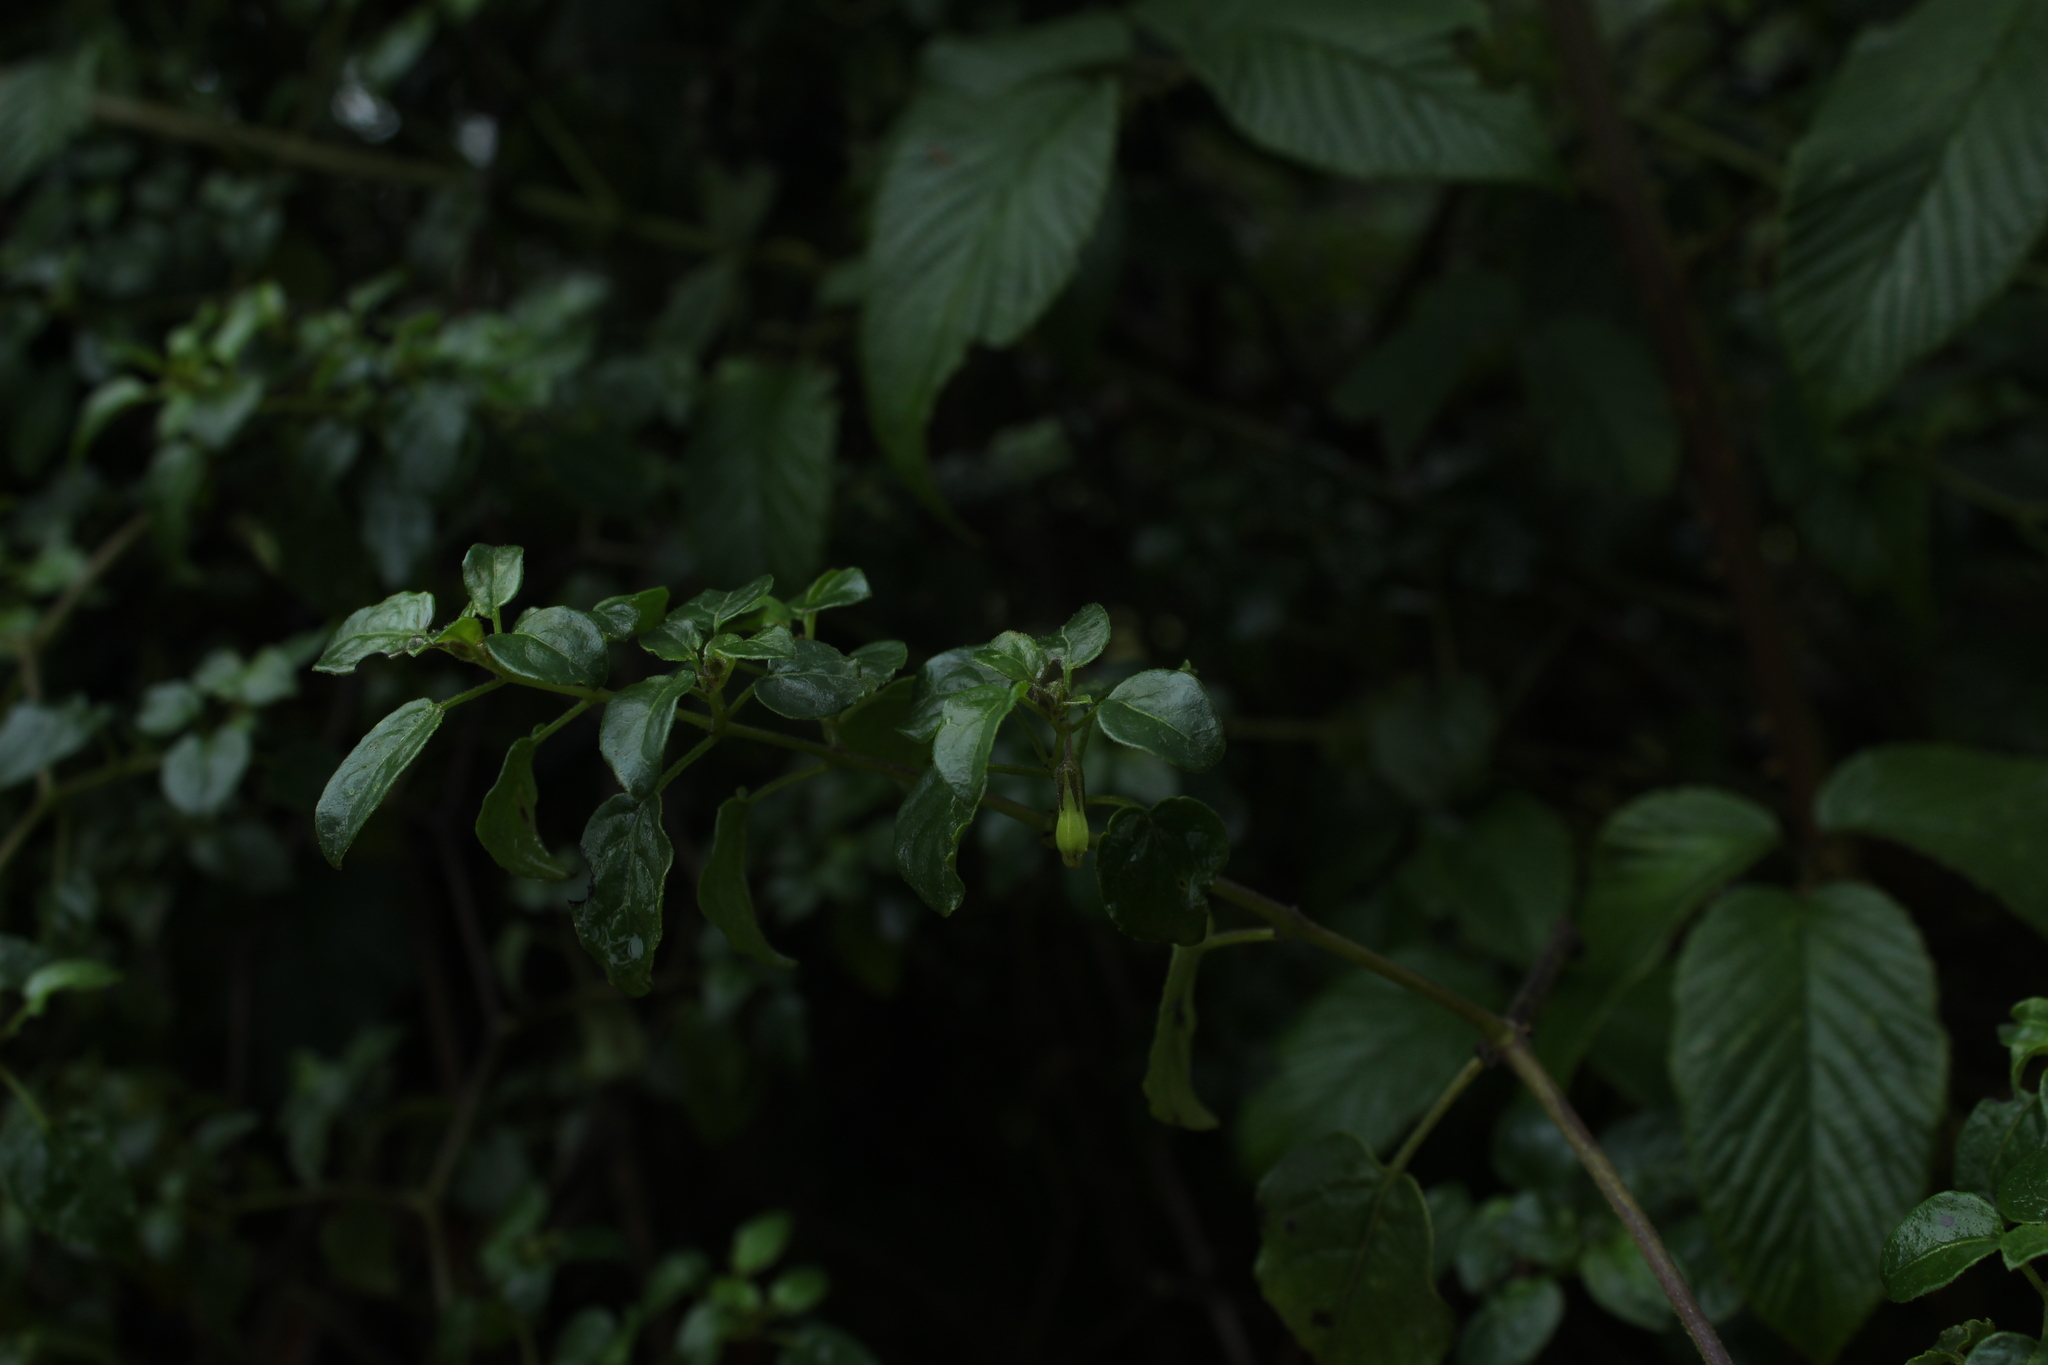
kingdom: Plantae
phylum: Tracheophyta
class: Magnoliopsida
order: Solanales
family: Solanaceae
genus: Salpichroa
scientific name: Salpichroa tristis
